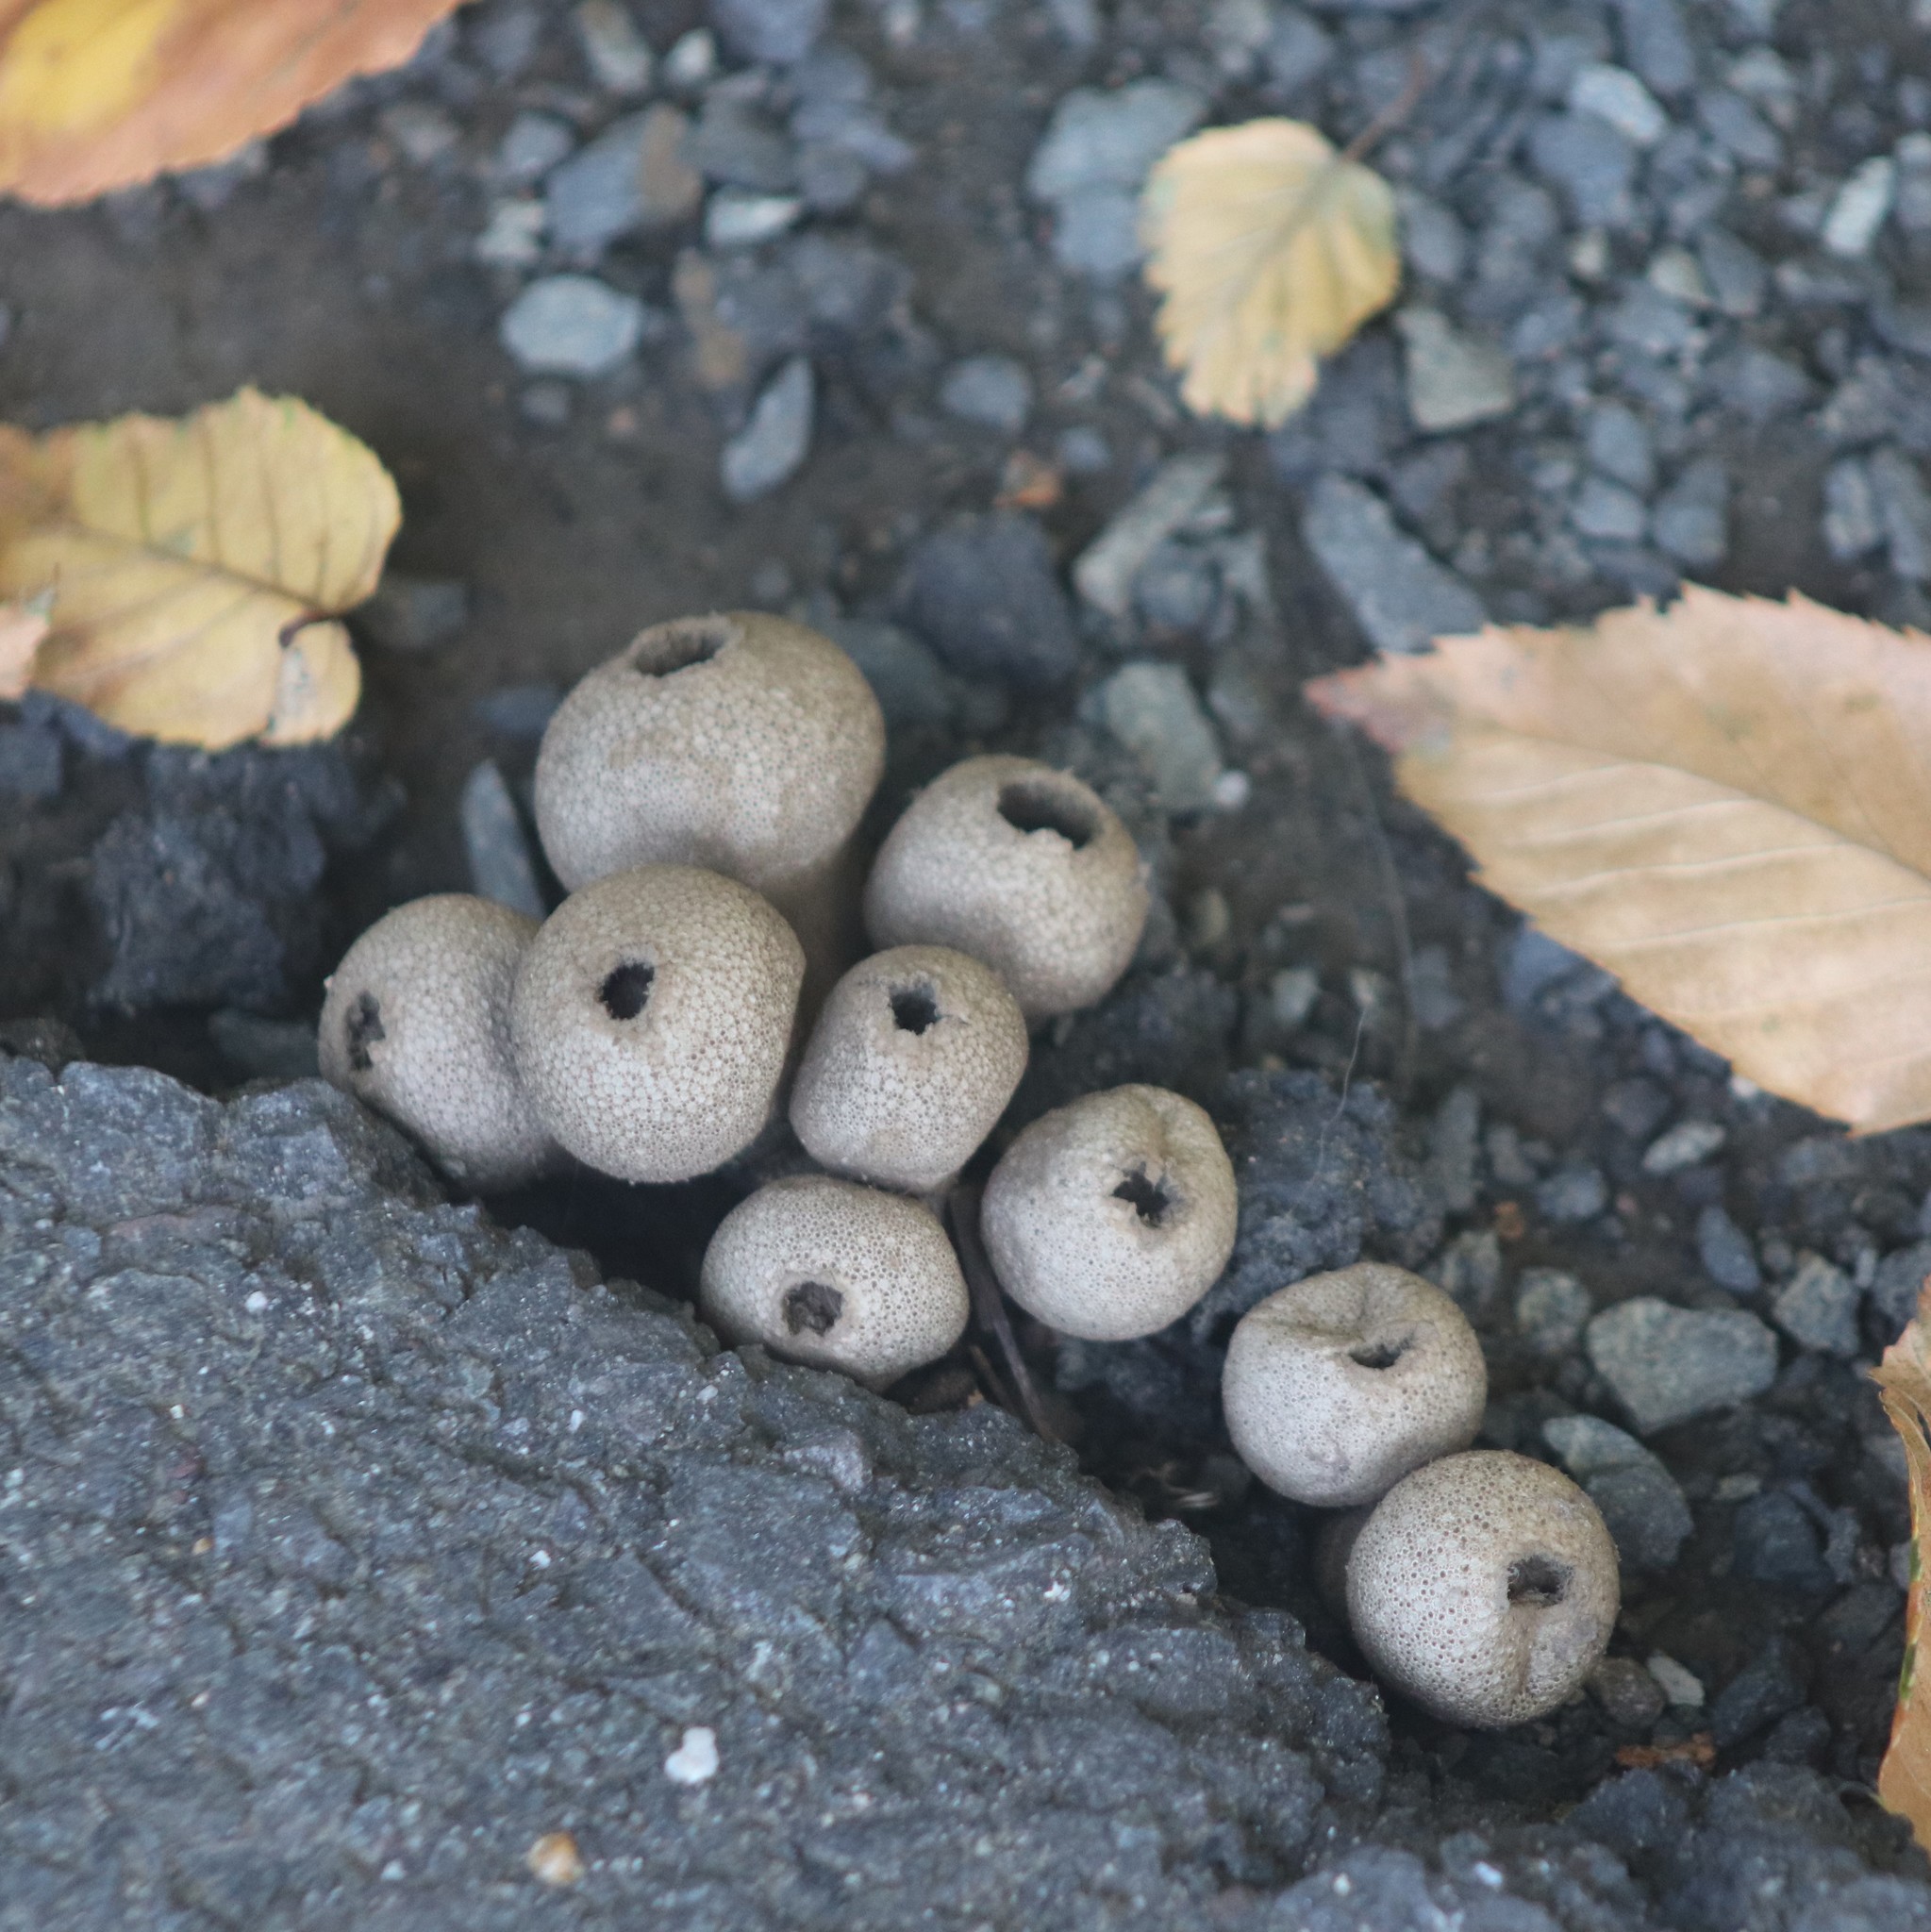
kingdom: Fungi
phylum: Basidiomycota
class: Agaricomycetes
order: Agaricales
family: Lycoperdaceae
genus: Apioperdon
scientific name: Apioperdon pyriforme
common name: Pear-shaped puffball
